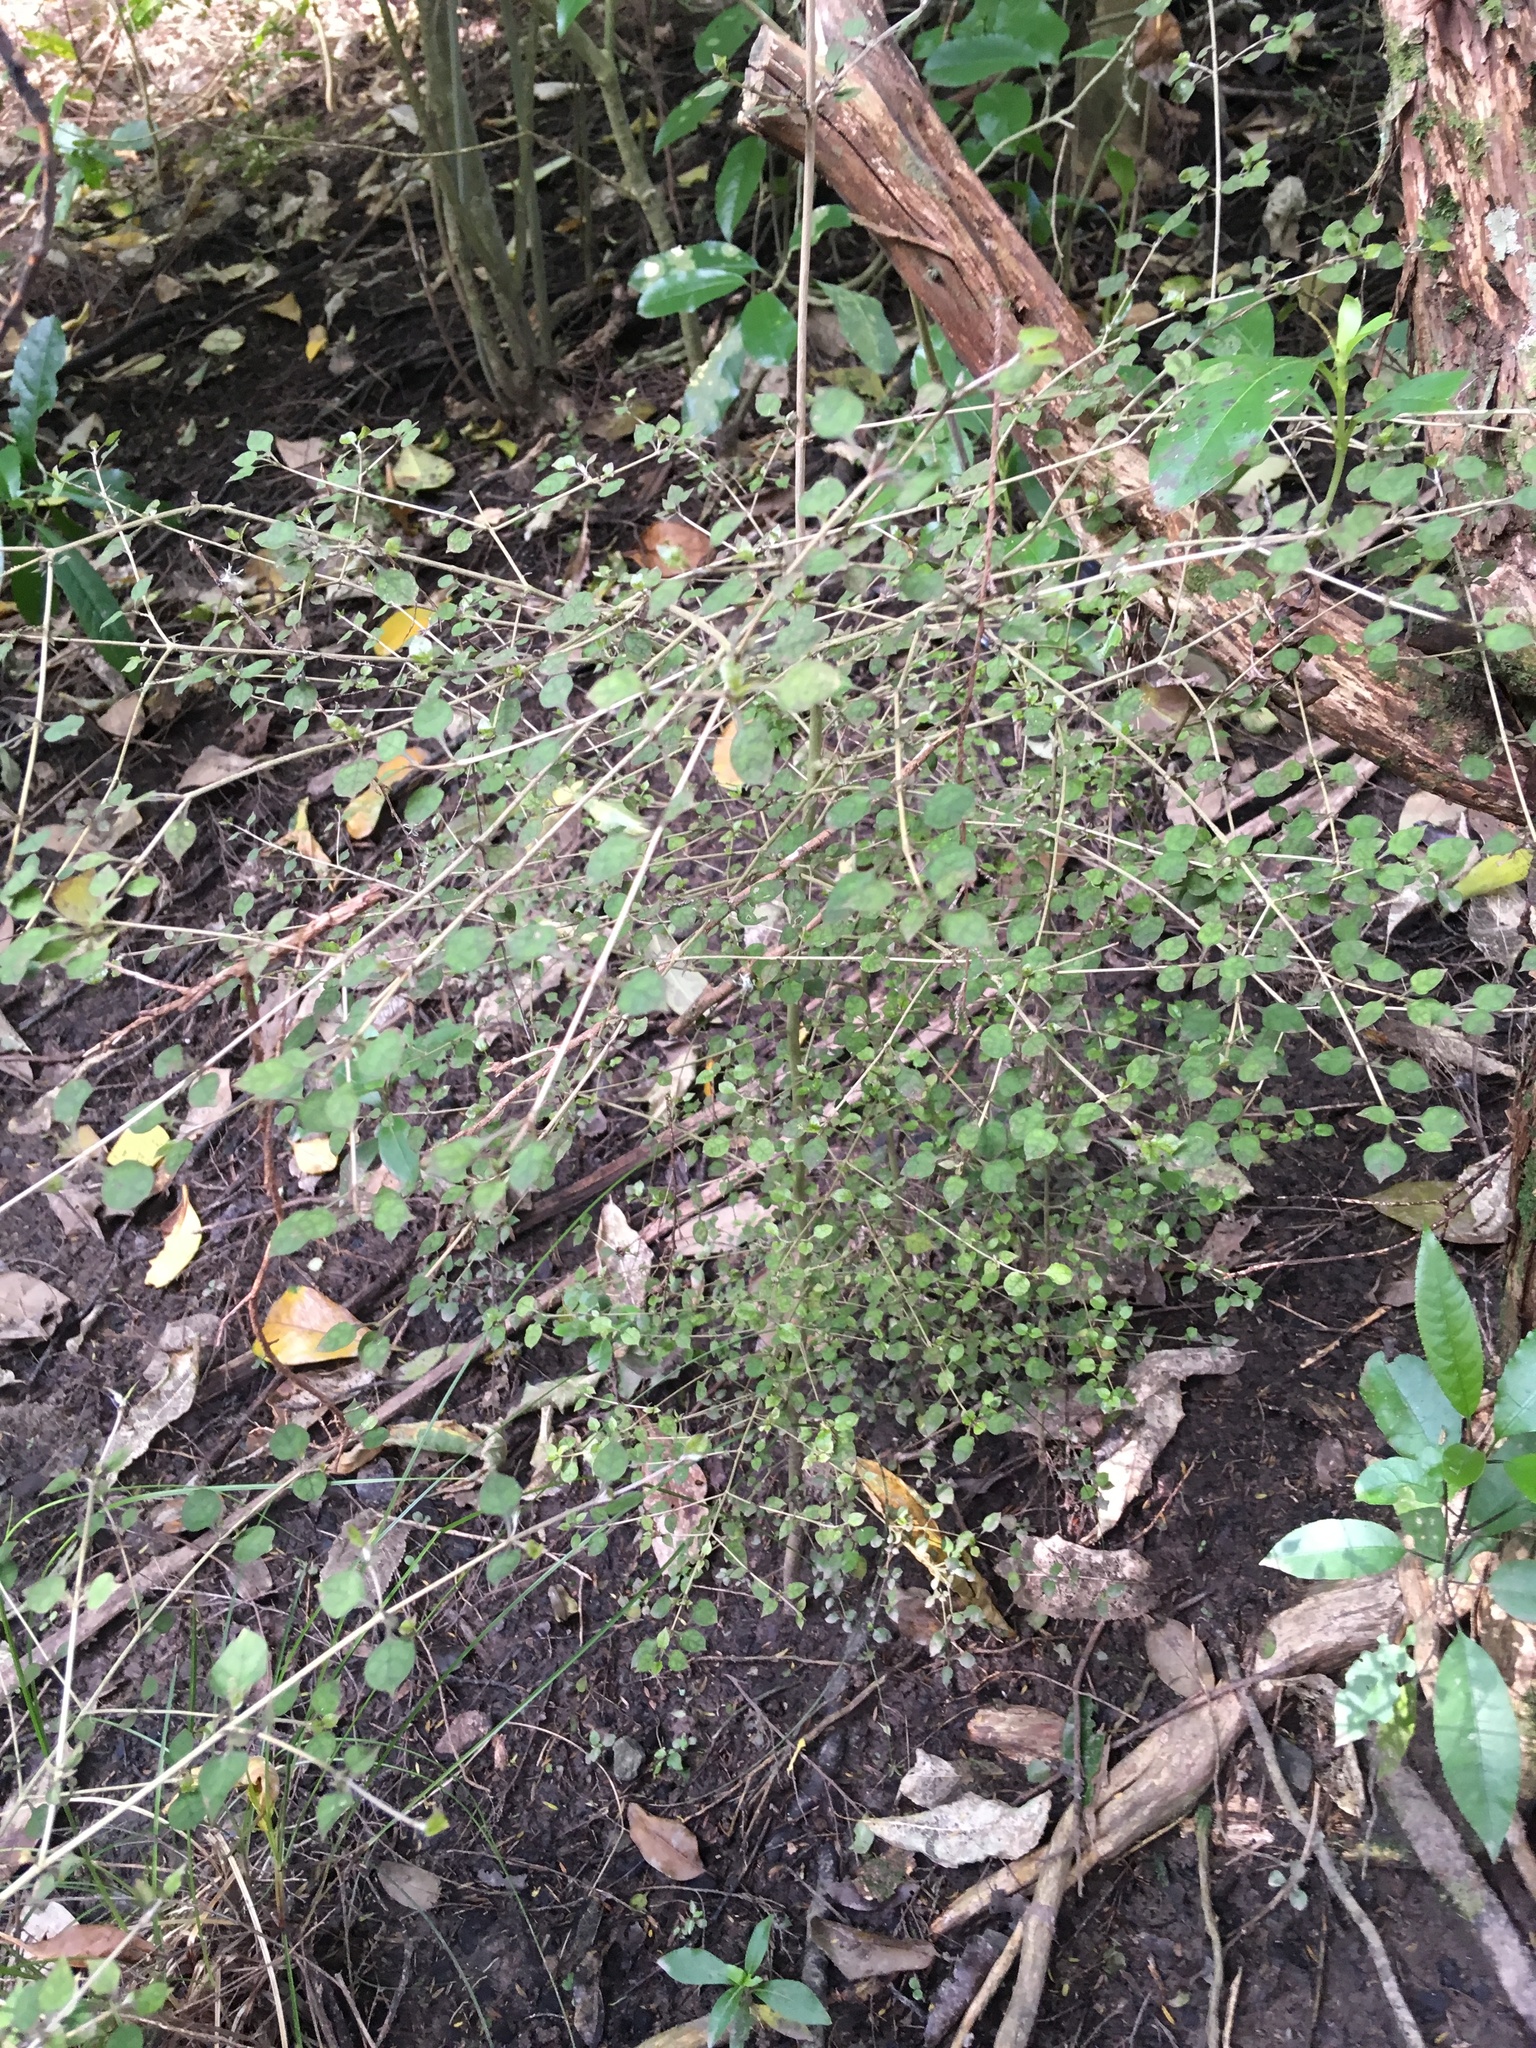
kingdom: Plantae
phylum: Tracheophyta
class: Magnoliopsida
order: Gentianales
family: Rubiaceae
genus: Coprosma
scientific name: Coprosma areolata
